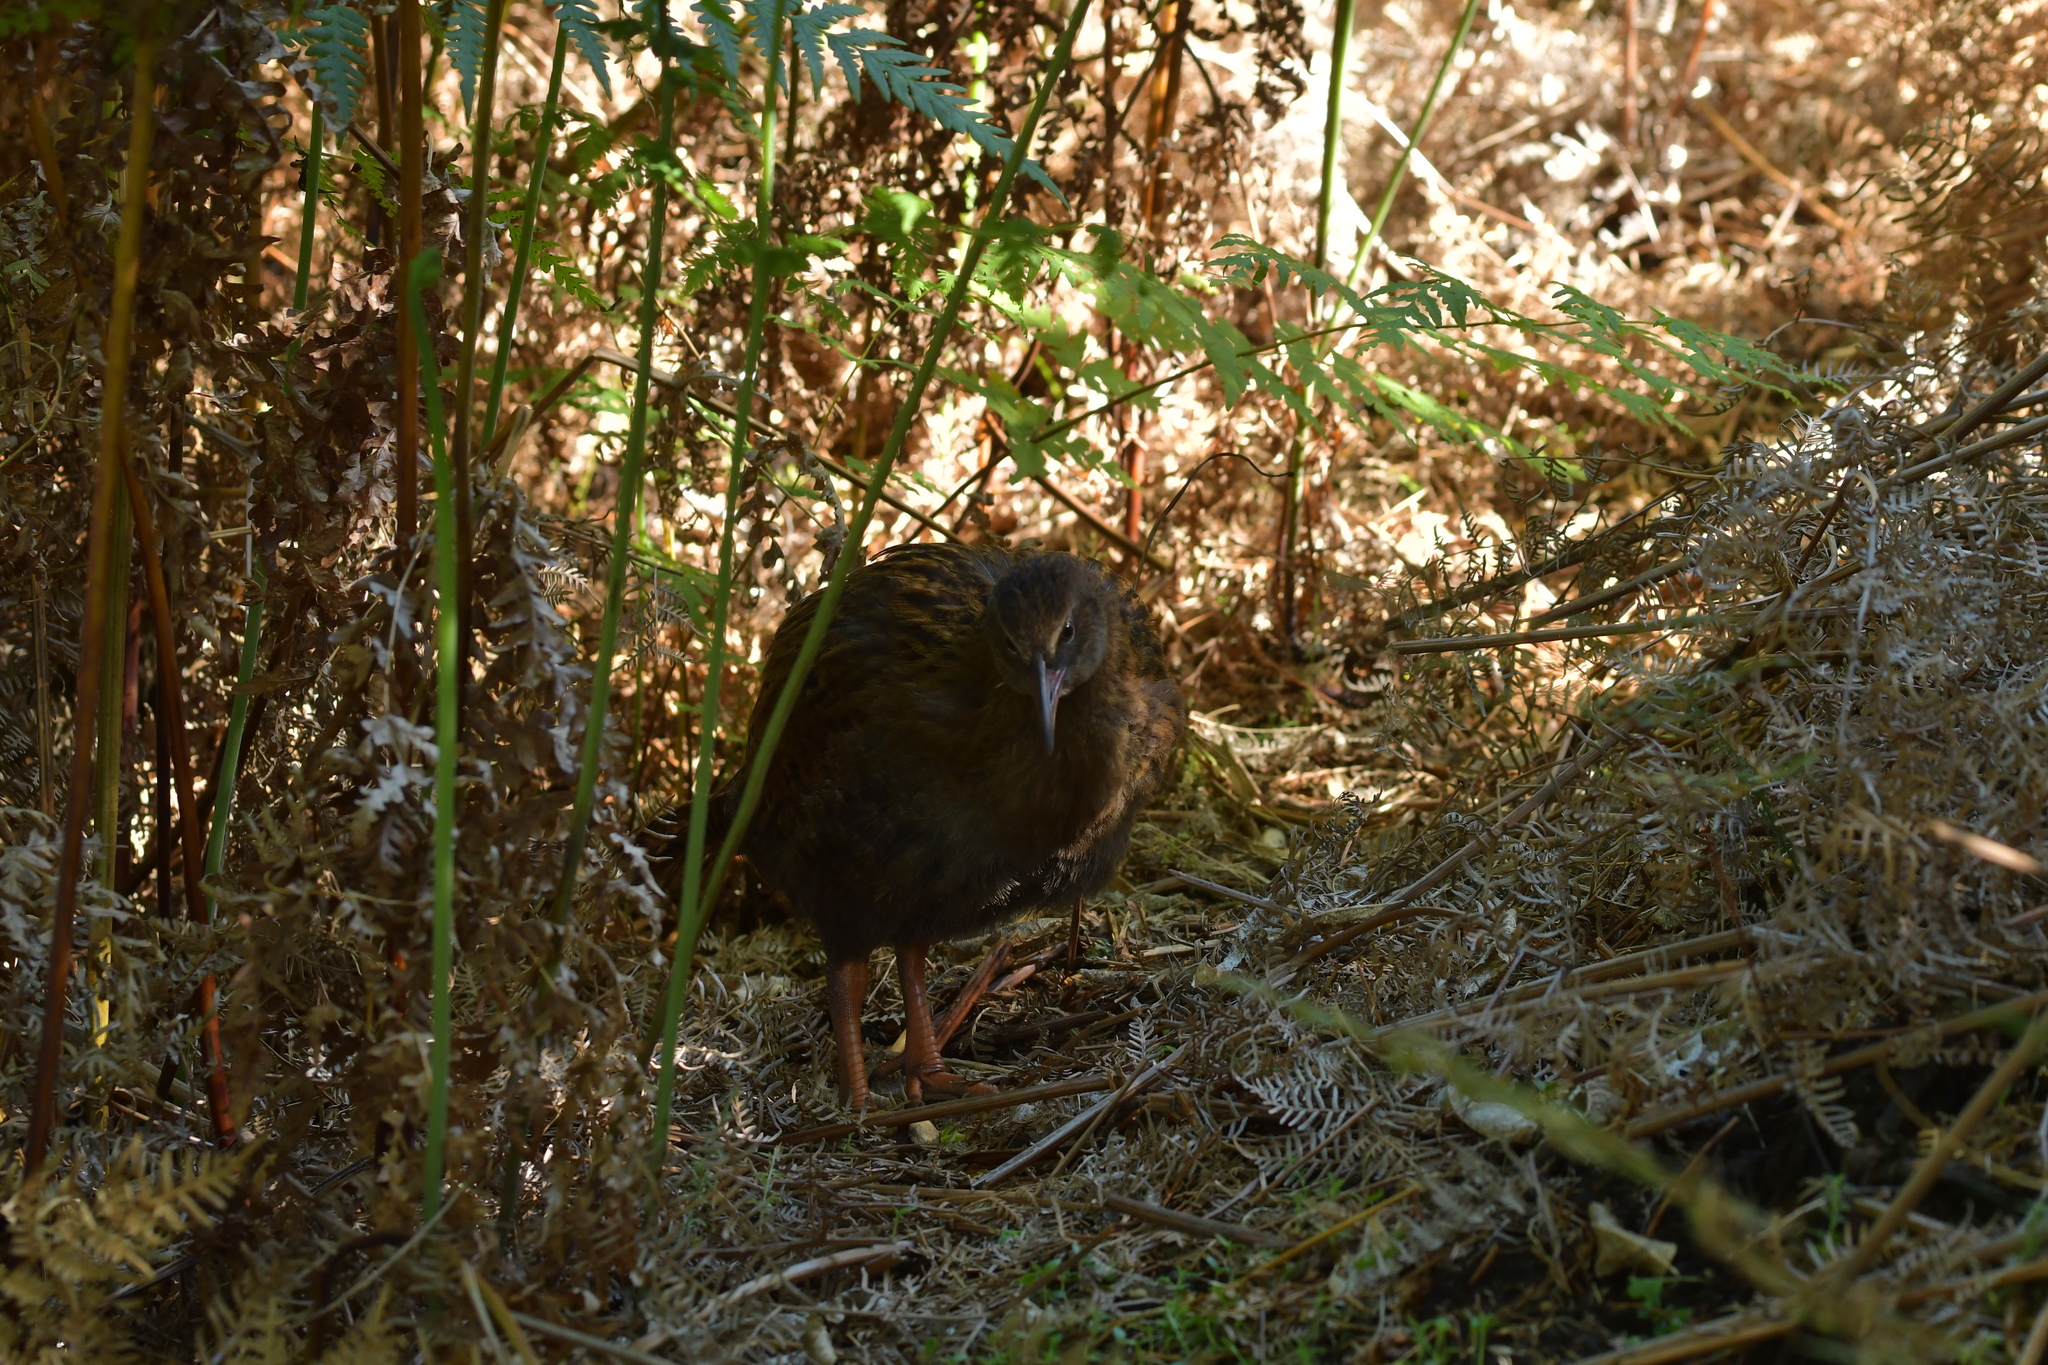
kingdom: Animalia
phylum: Chordata
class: Aves
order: Gruiformes
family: Rallidae
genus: Gallirallus
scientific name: Gallirallus australis
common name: Weka
